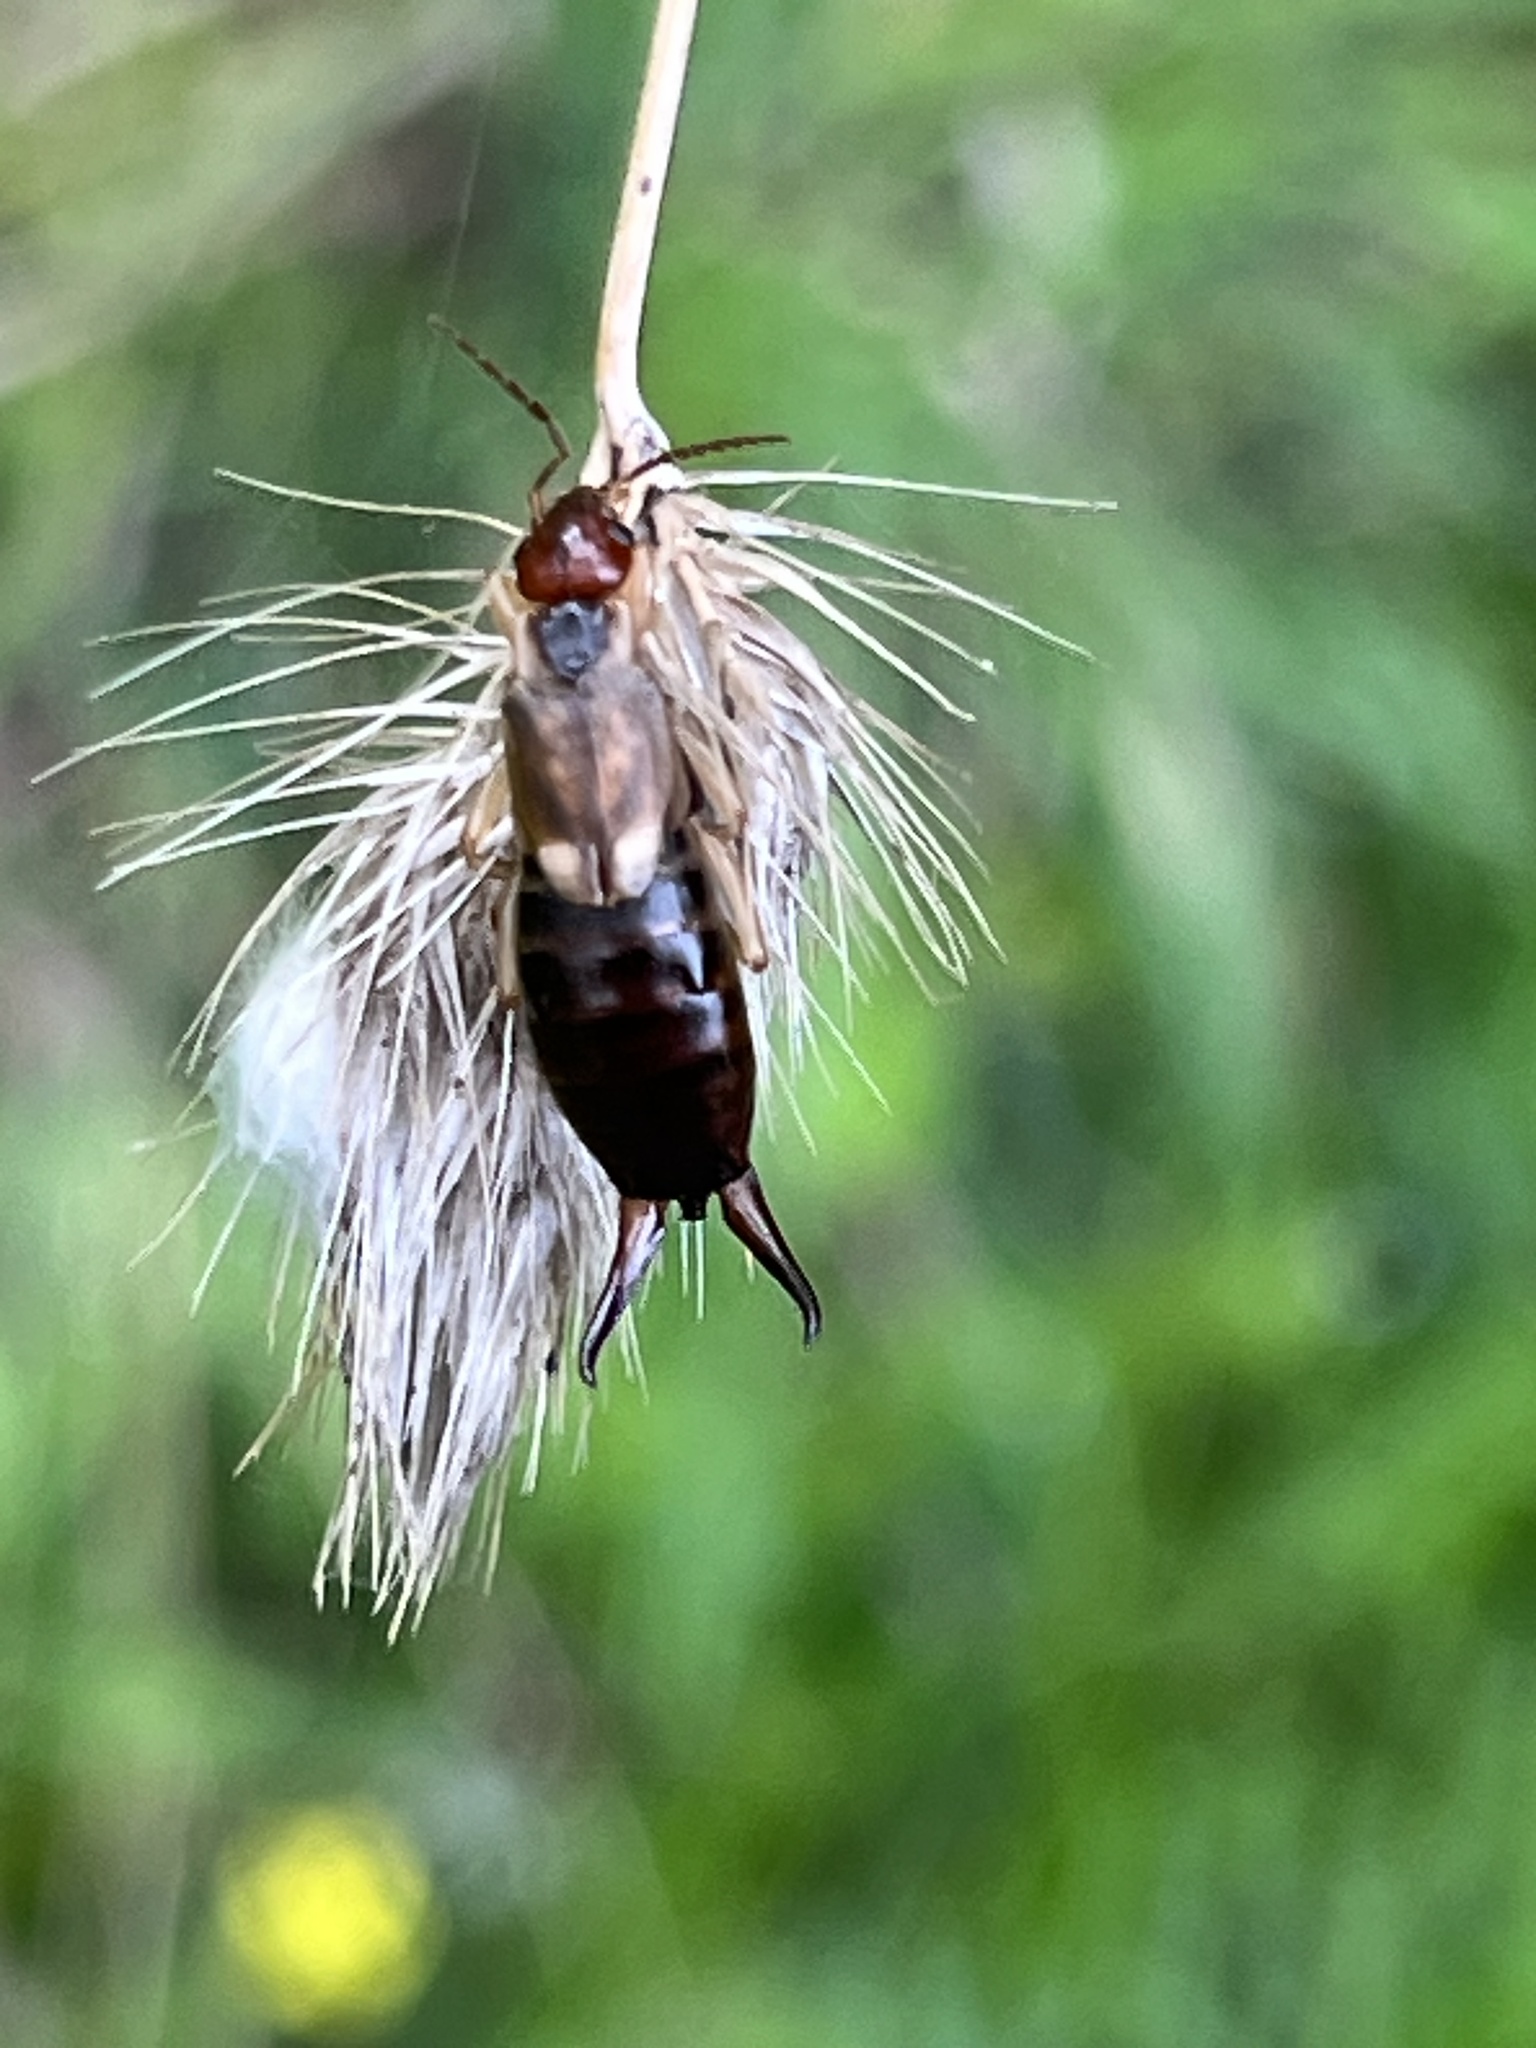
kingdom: Animalia
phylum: Arthropoda
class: Insecta
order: Dermaptera
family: Forficulidae
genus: Forficula
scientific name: Forficula
